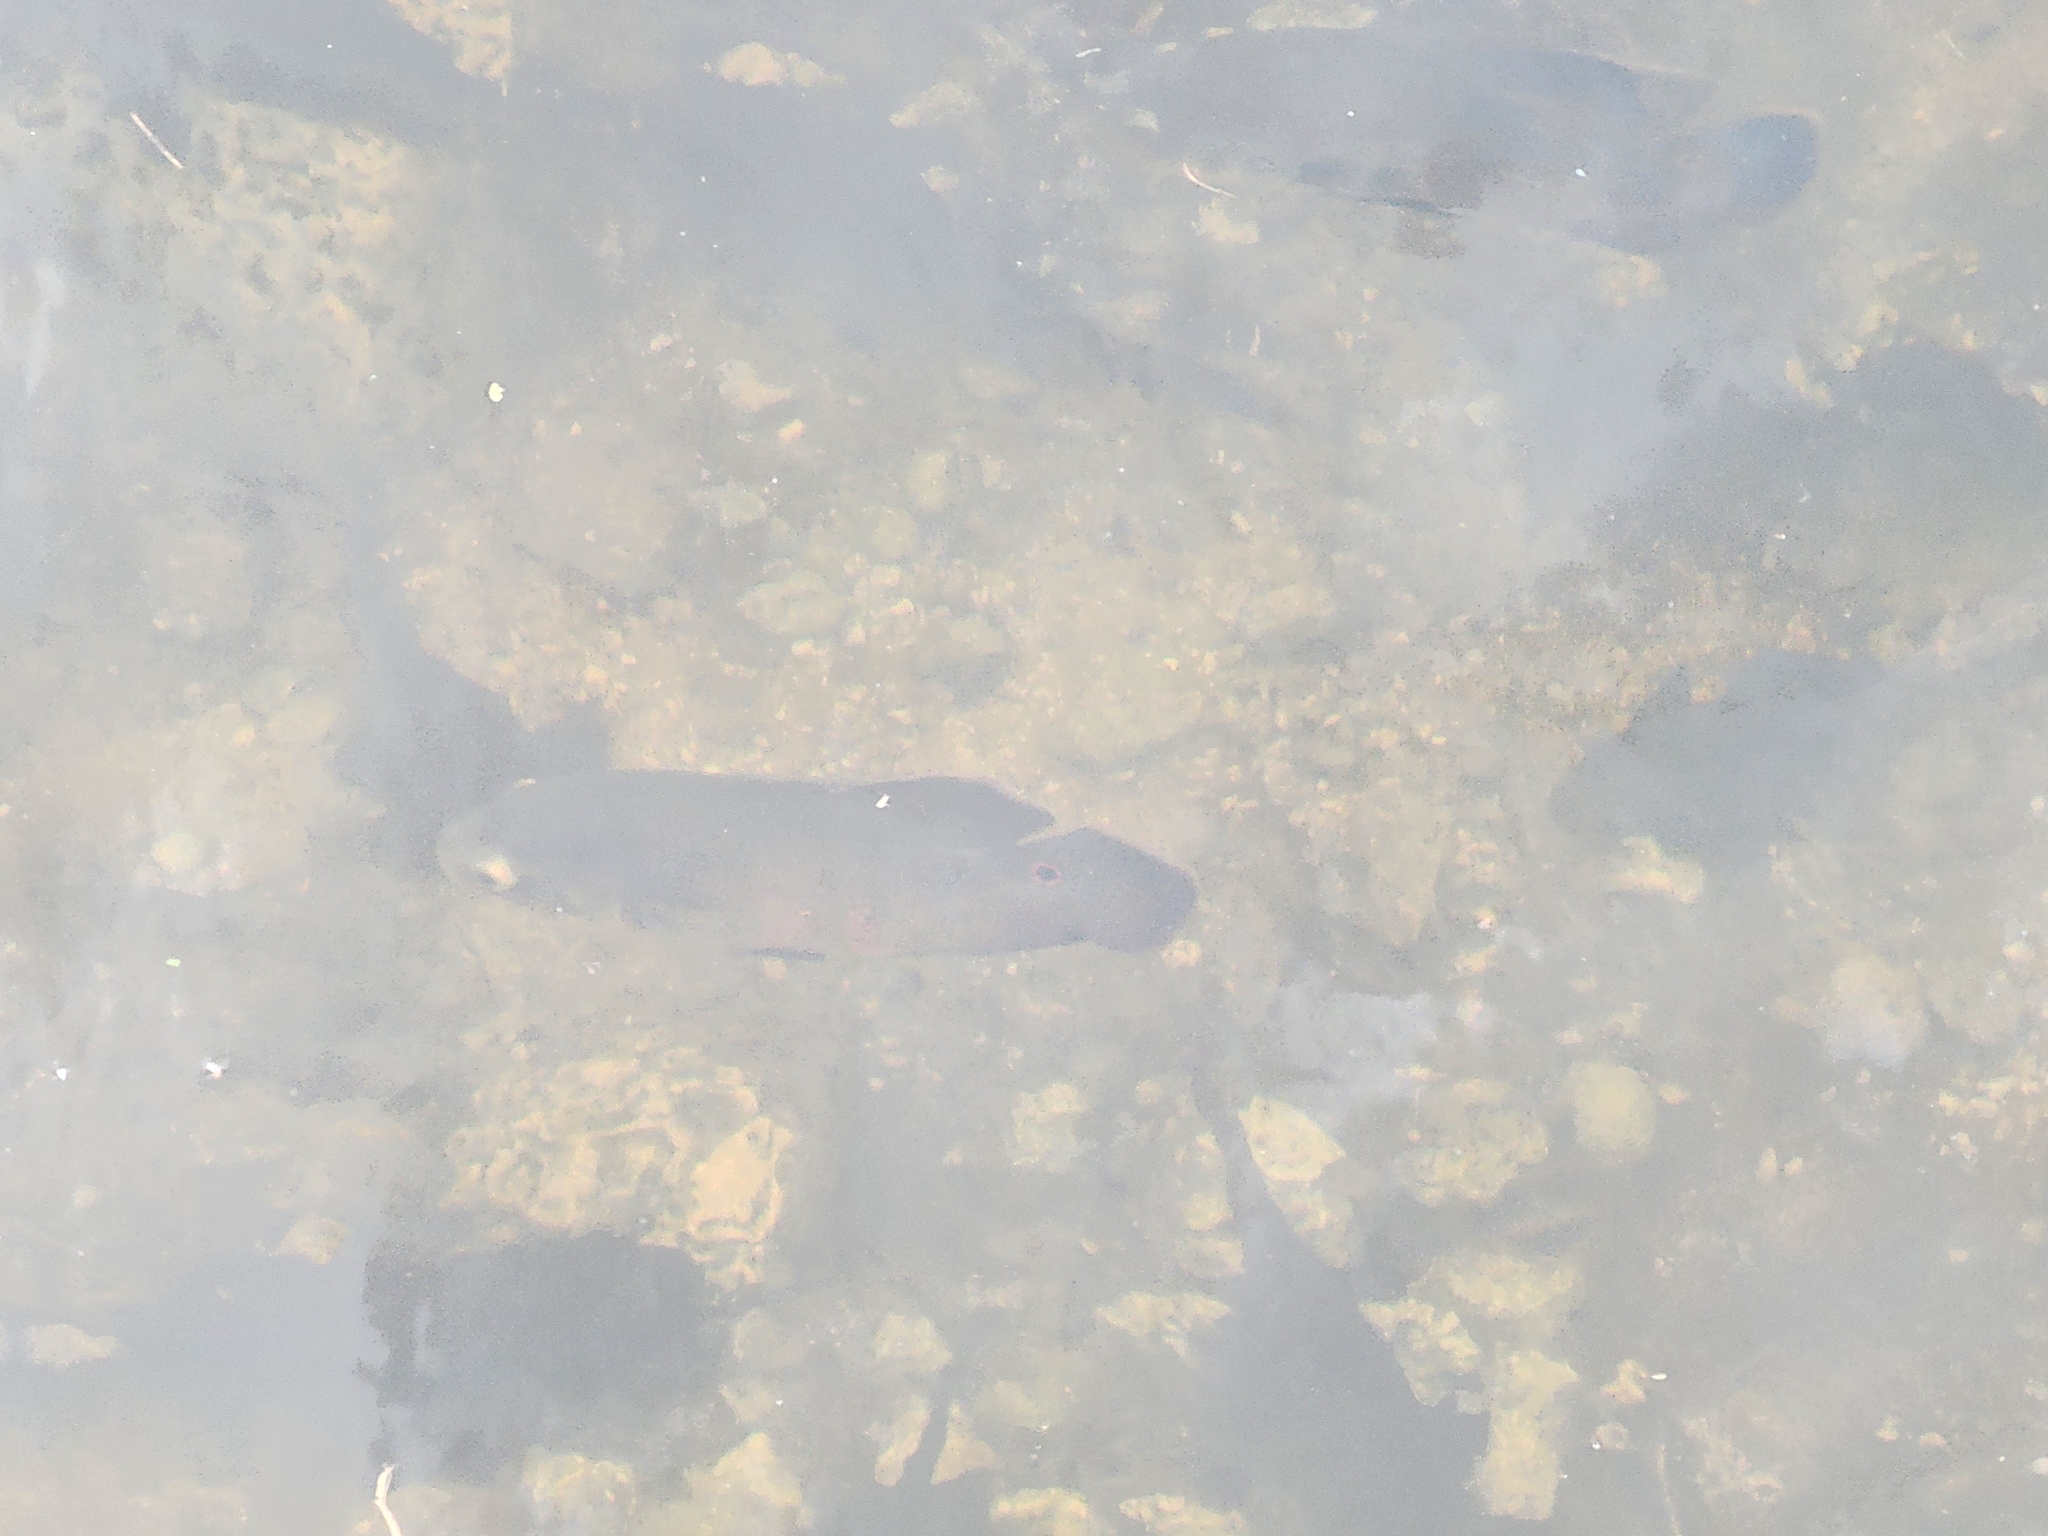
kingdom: Animalia
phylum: Chordata
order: Perciformes
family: Cichlidae
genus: Astronotus
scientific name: Astronotus ocellatus
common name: Oscar
